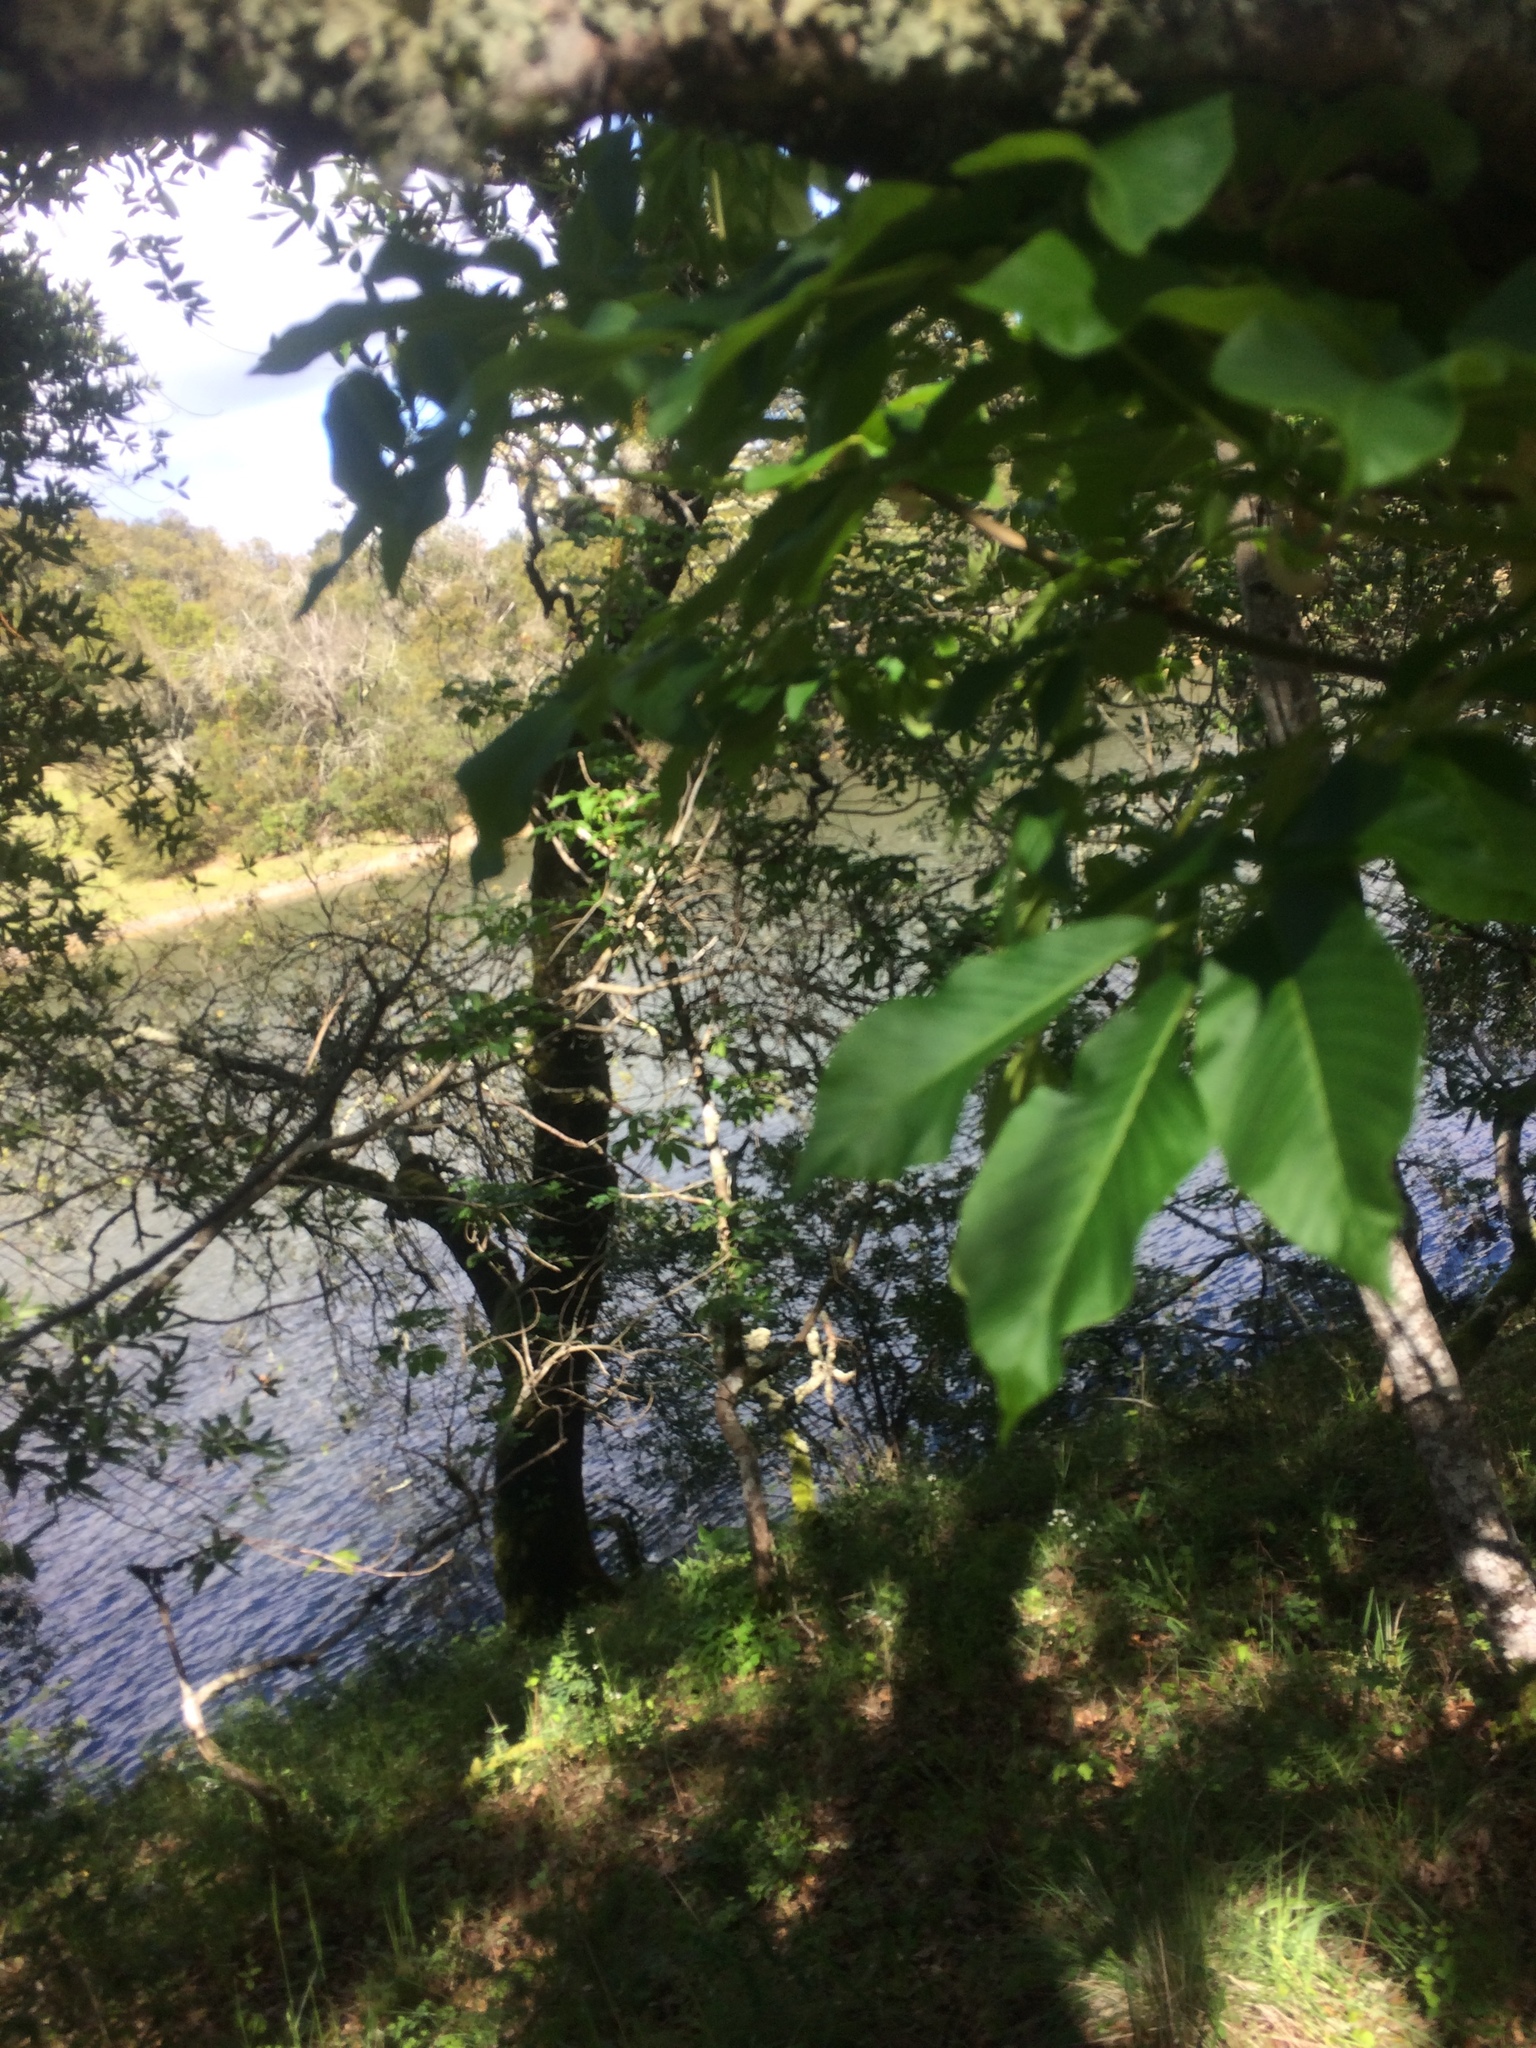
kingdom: Plantae
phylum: Tracheophyta
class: Magnoliopsida
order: Sapindales
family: Sapindaceae
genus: Aesculus
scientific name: Aesculus californica
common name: California buckeye
